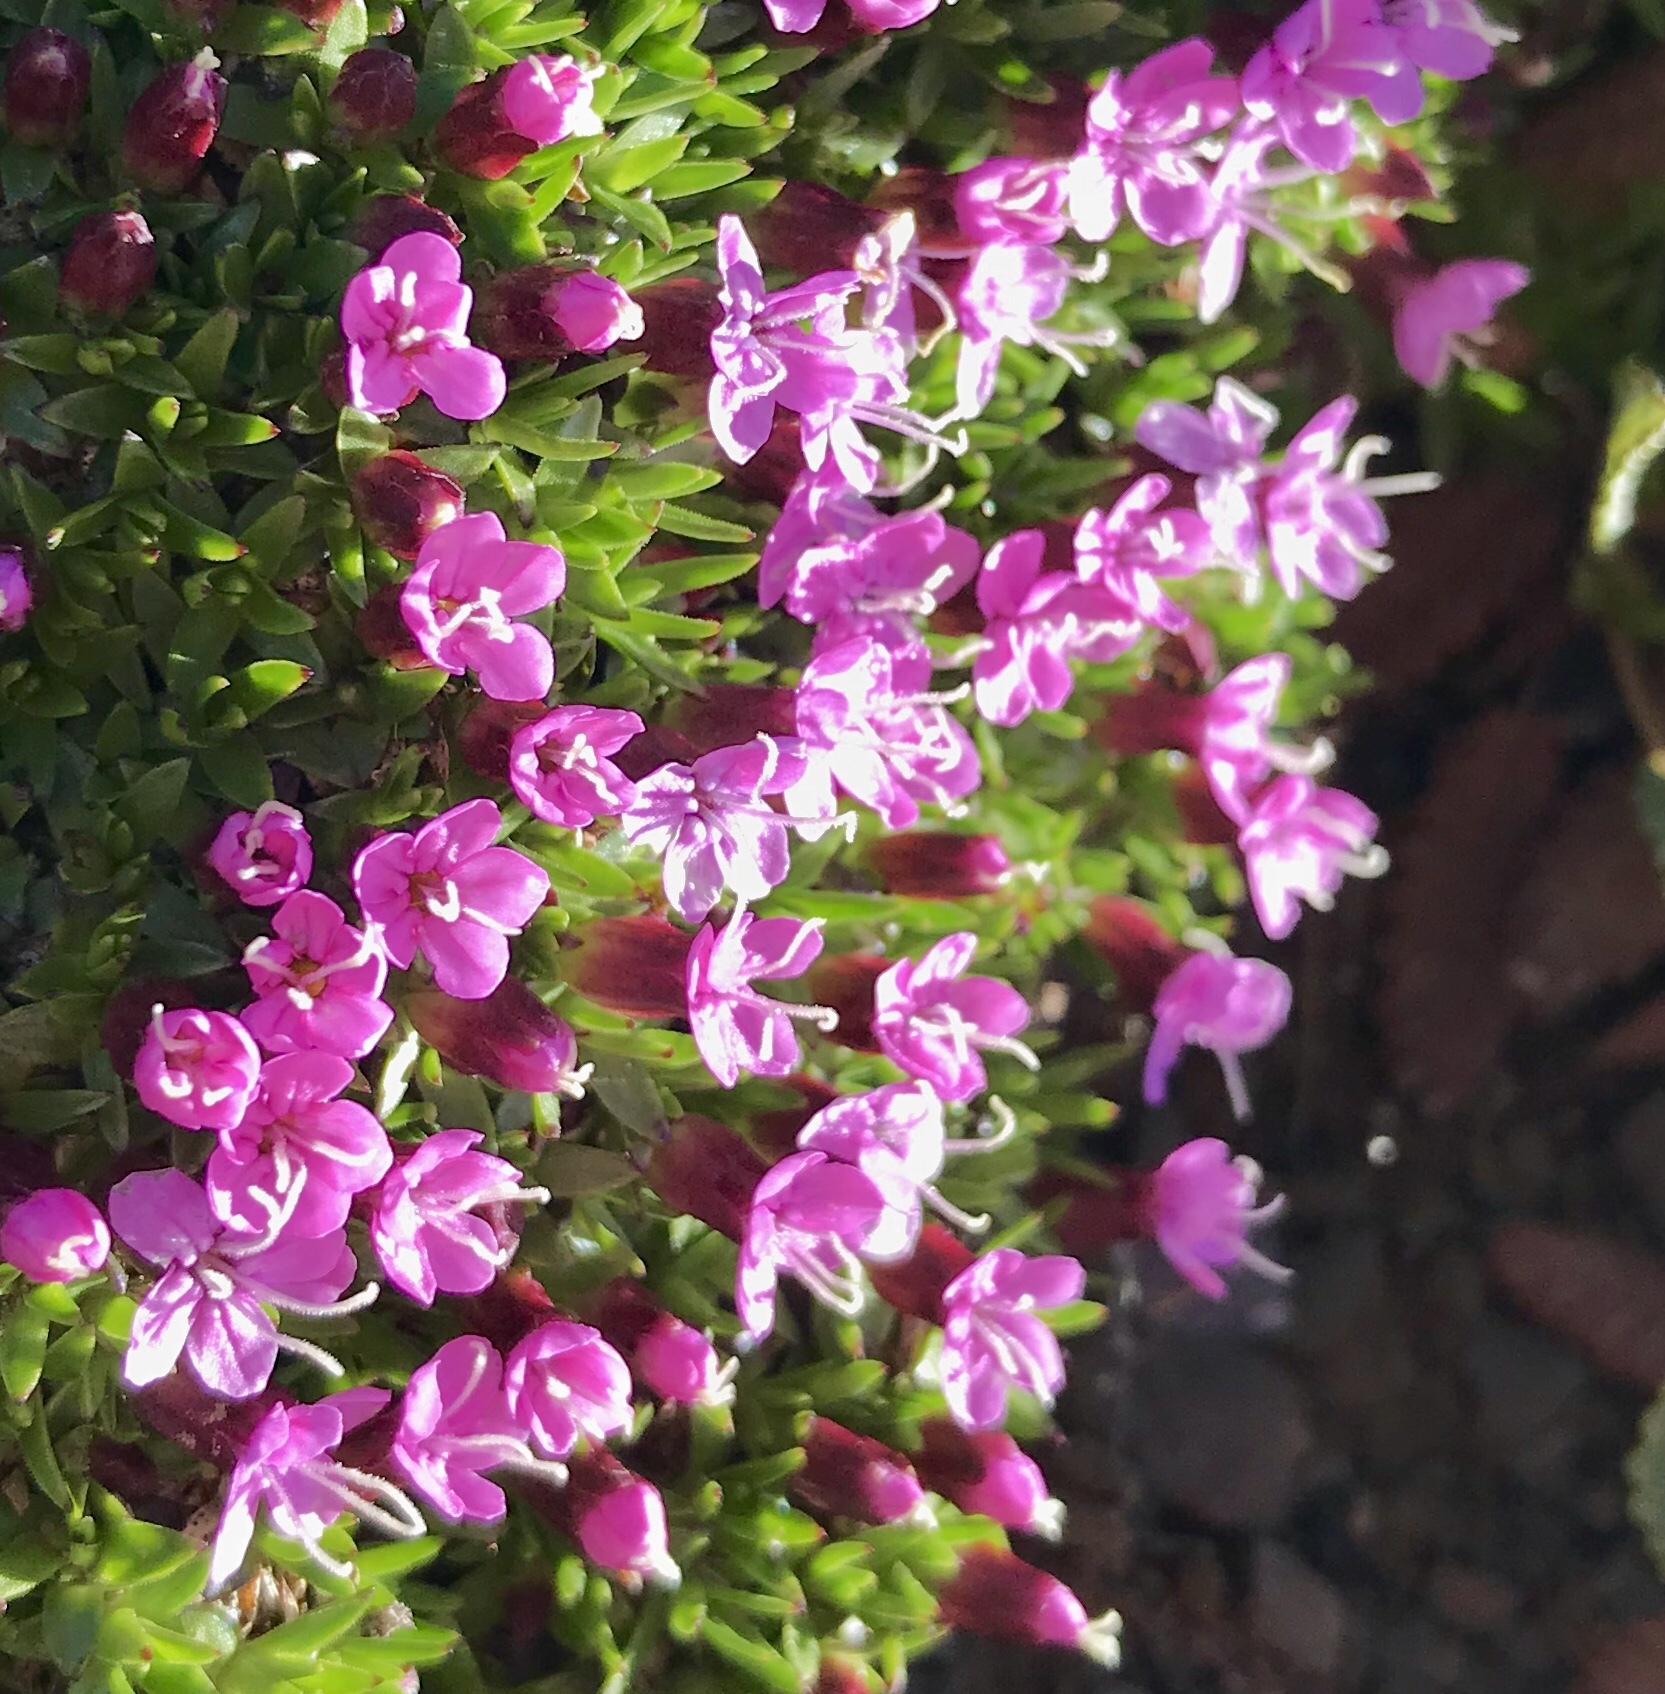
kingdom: Plantae
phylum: Tracheophyta
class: Magnoliopsida
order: Caryophyllales
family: Caryophyllaceae
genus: Silene
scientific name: Silene acaulis
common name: Moss campion
